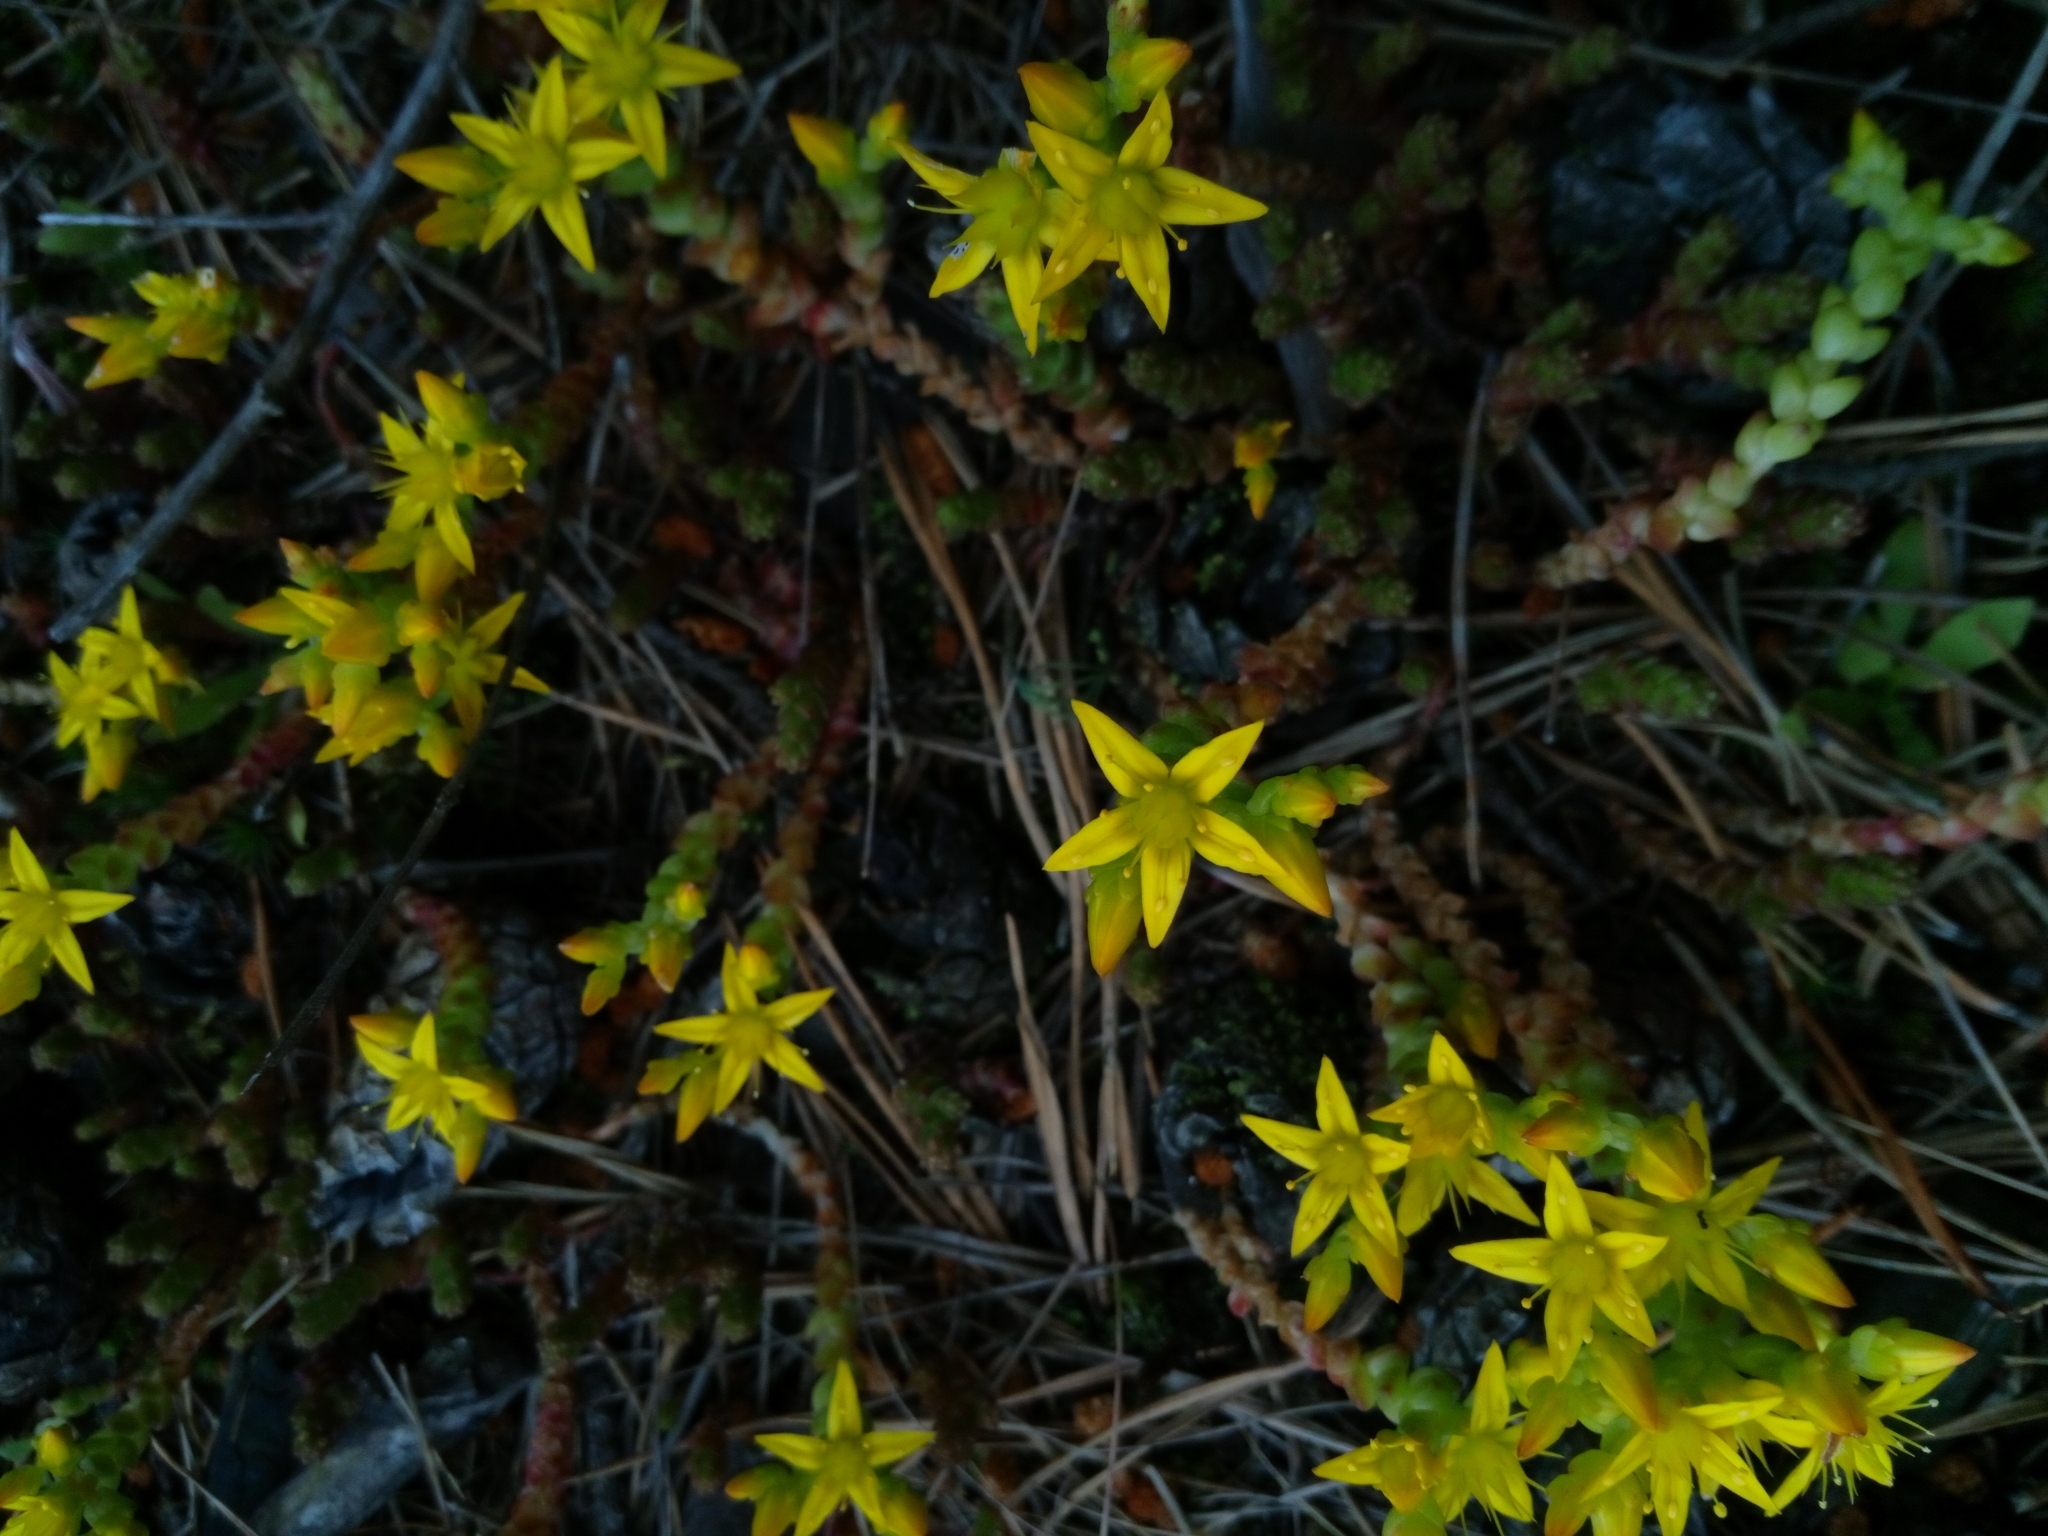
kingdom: Plantae
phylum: Tracheophyta
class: Magnoliopsida
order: Saxifragales
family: Crassulaceae
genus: Sedum
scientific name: Sedum acre
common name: Biting stonecrop
